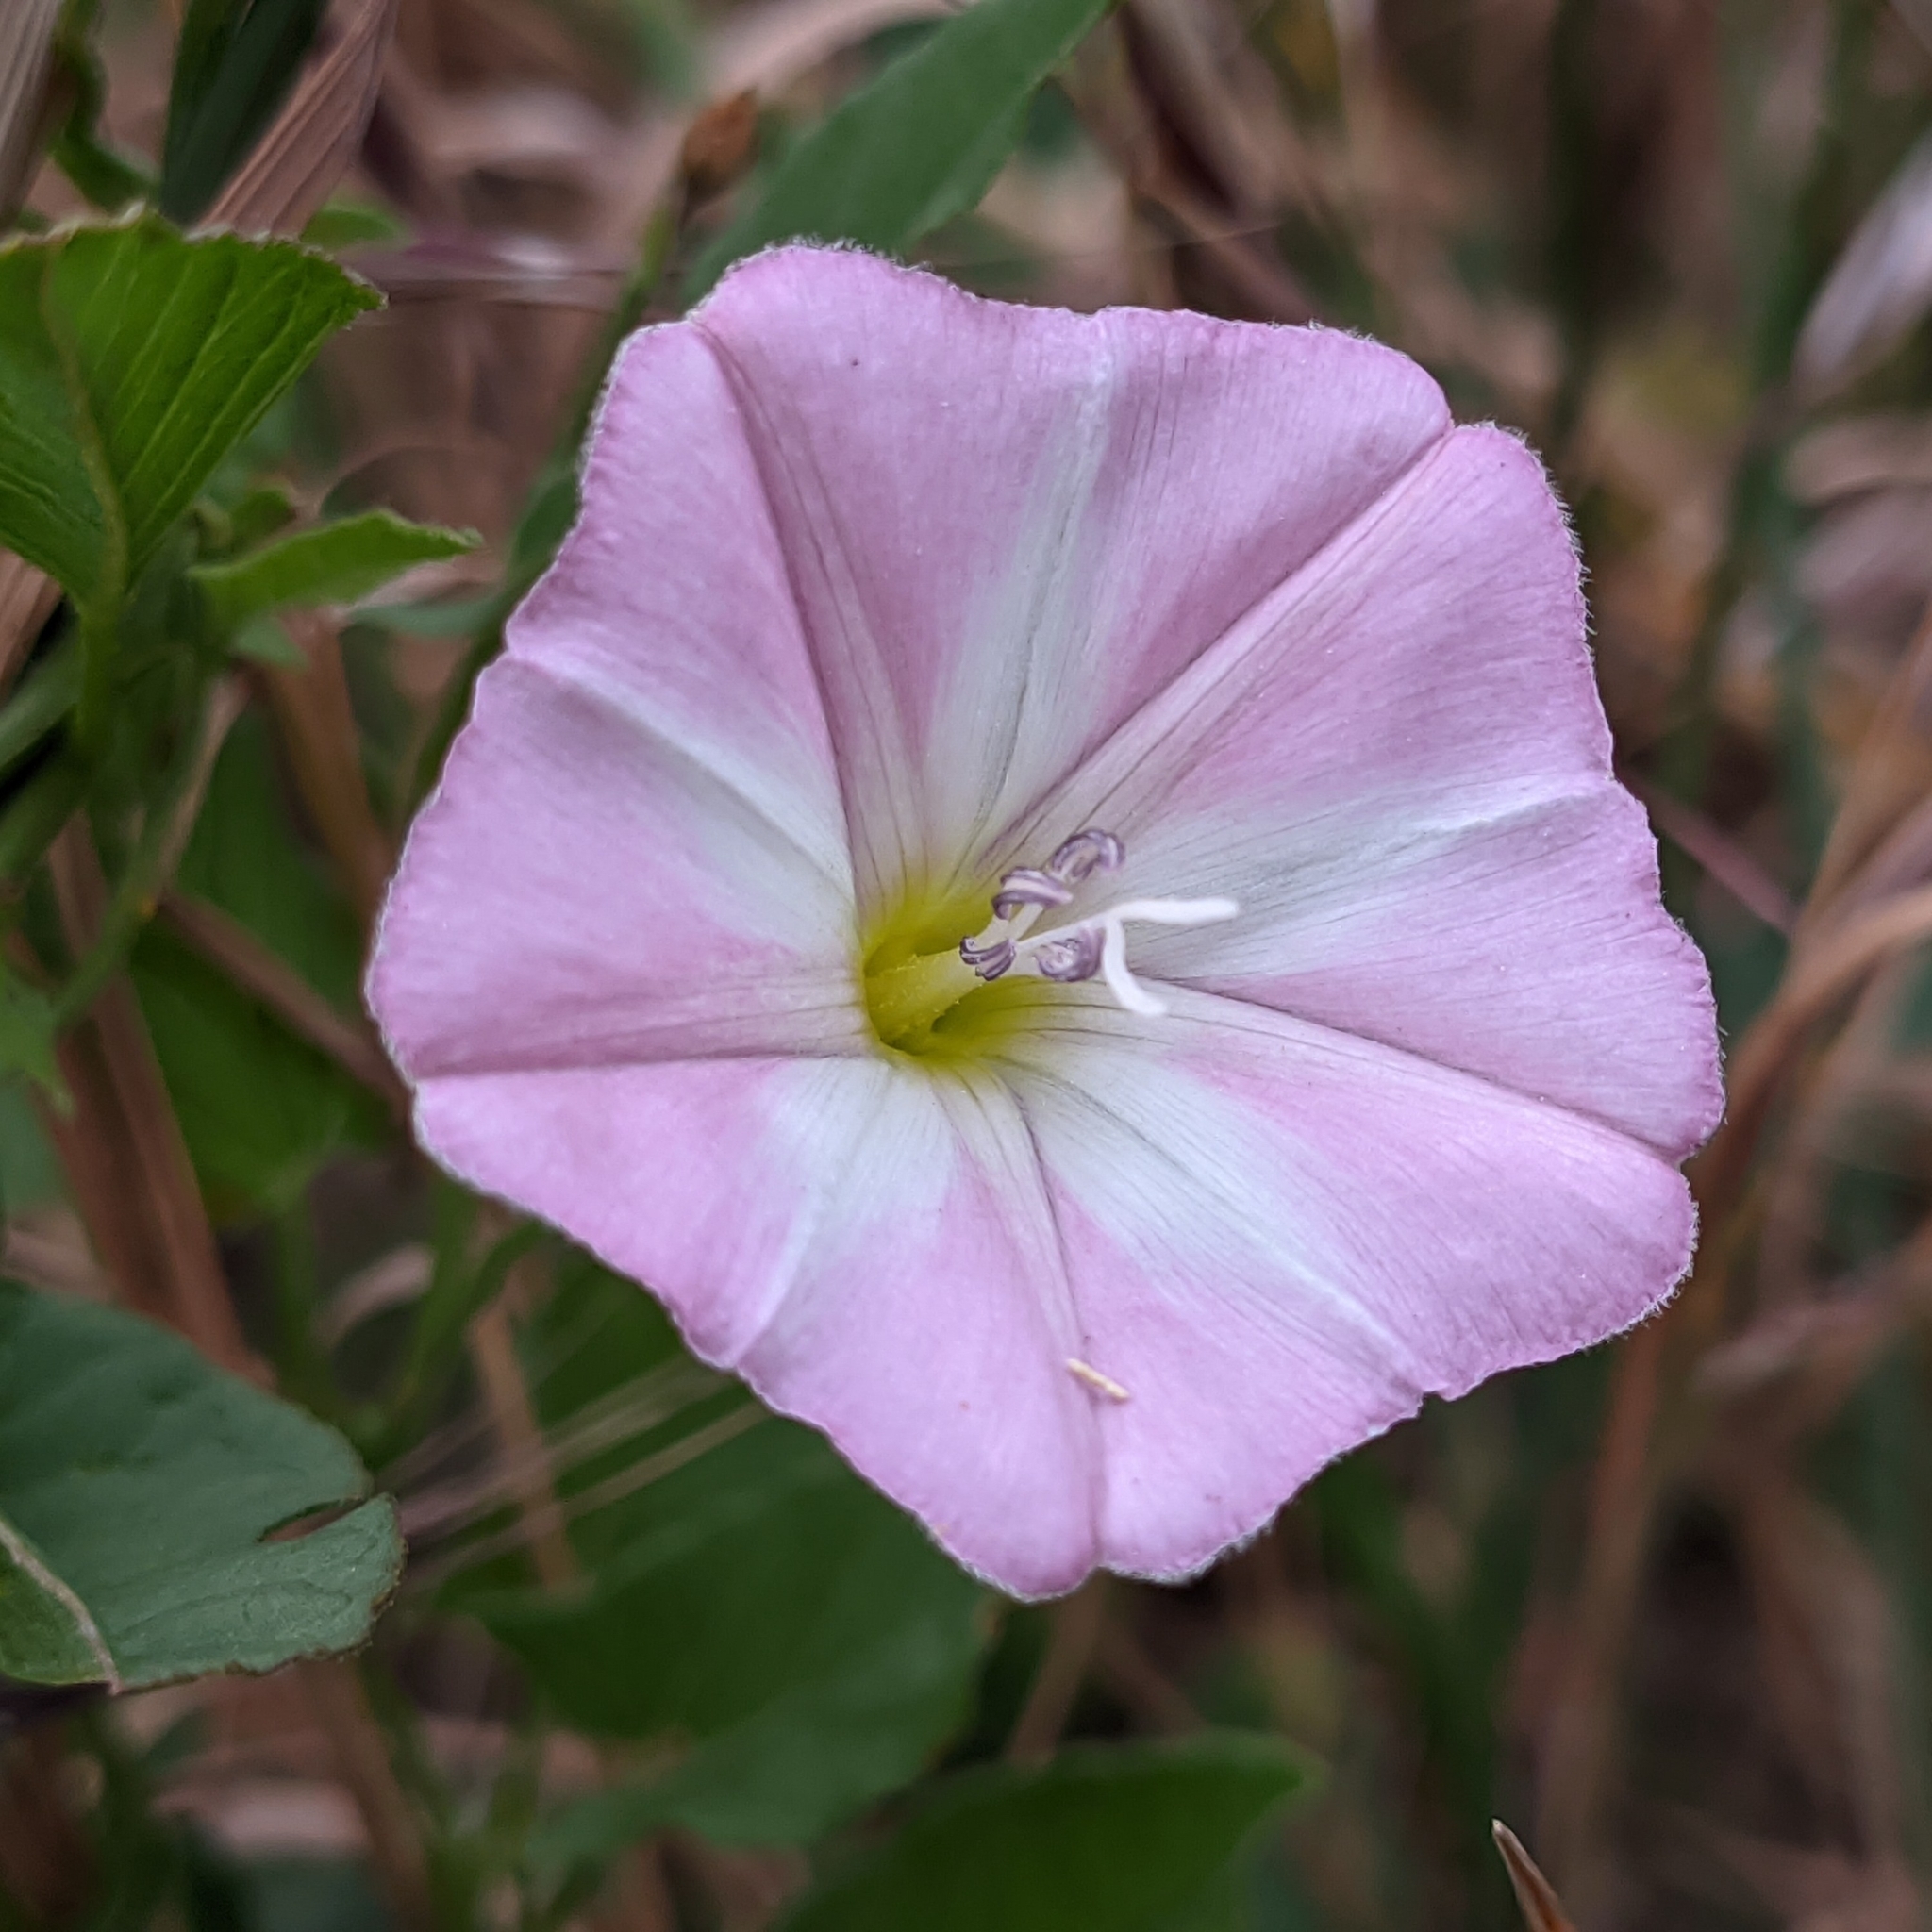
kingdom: Plantae
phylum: Tracheophyta
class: Magnoliopsida
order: Solanales
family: Convolvulaceae
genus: Convolvulus
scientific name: Convolvulus arvensis
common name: Field bindweed
